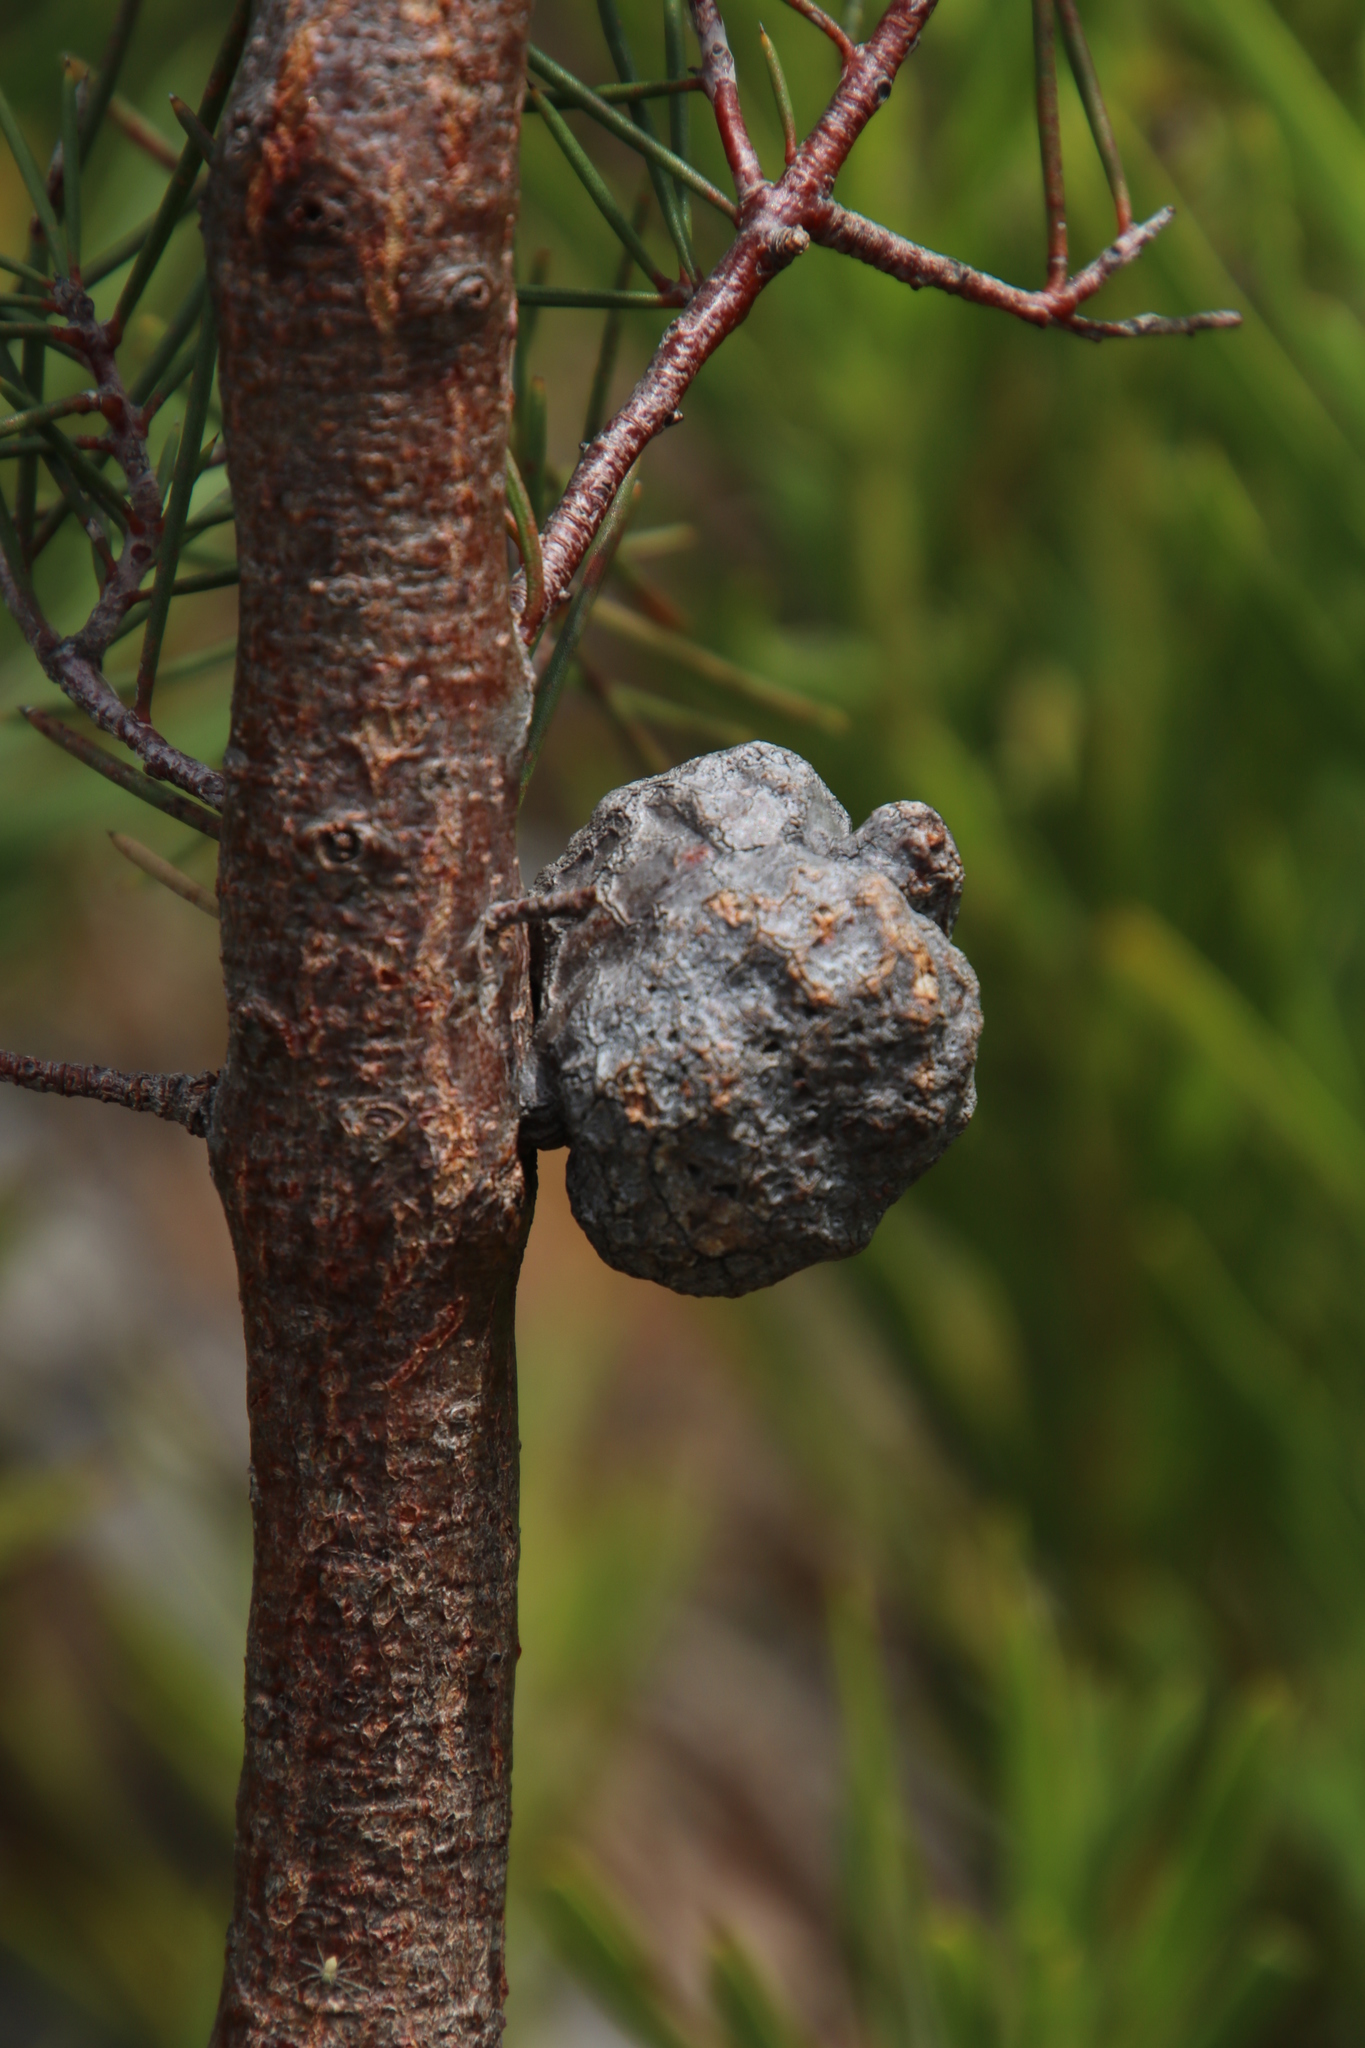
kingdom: Plantae
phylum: Tracheophyta
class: Magnoliopsida
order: Proteales
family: Proteaceae
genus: Hakea
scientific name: Hakea sericea
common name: Needle bush
